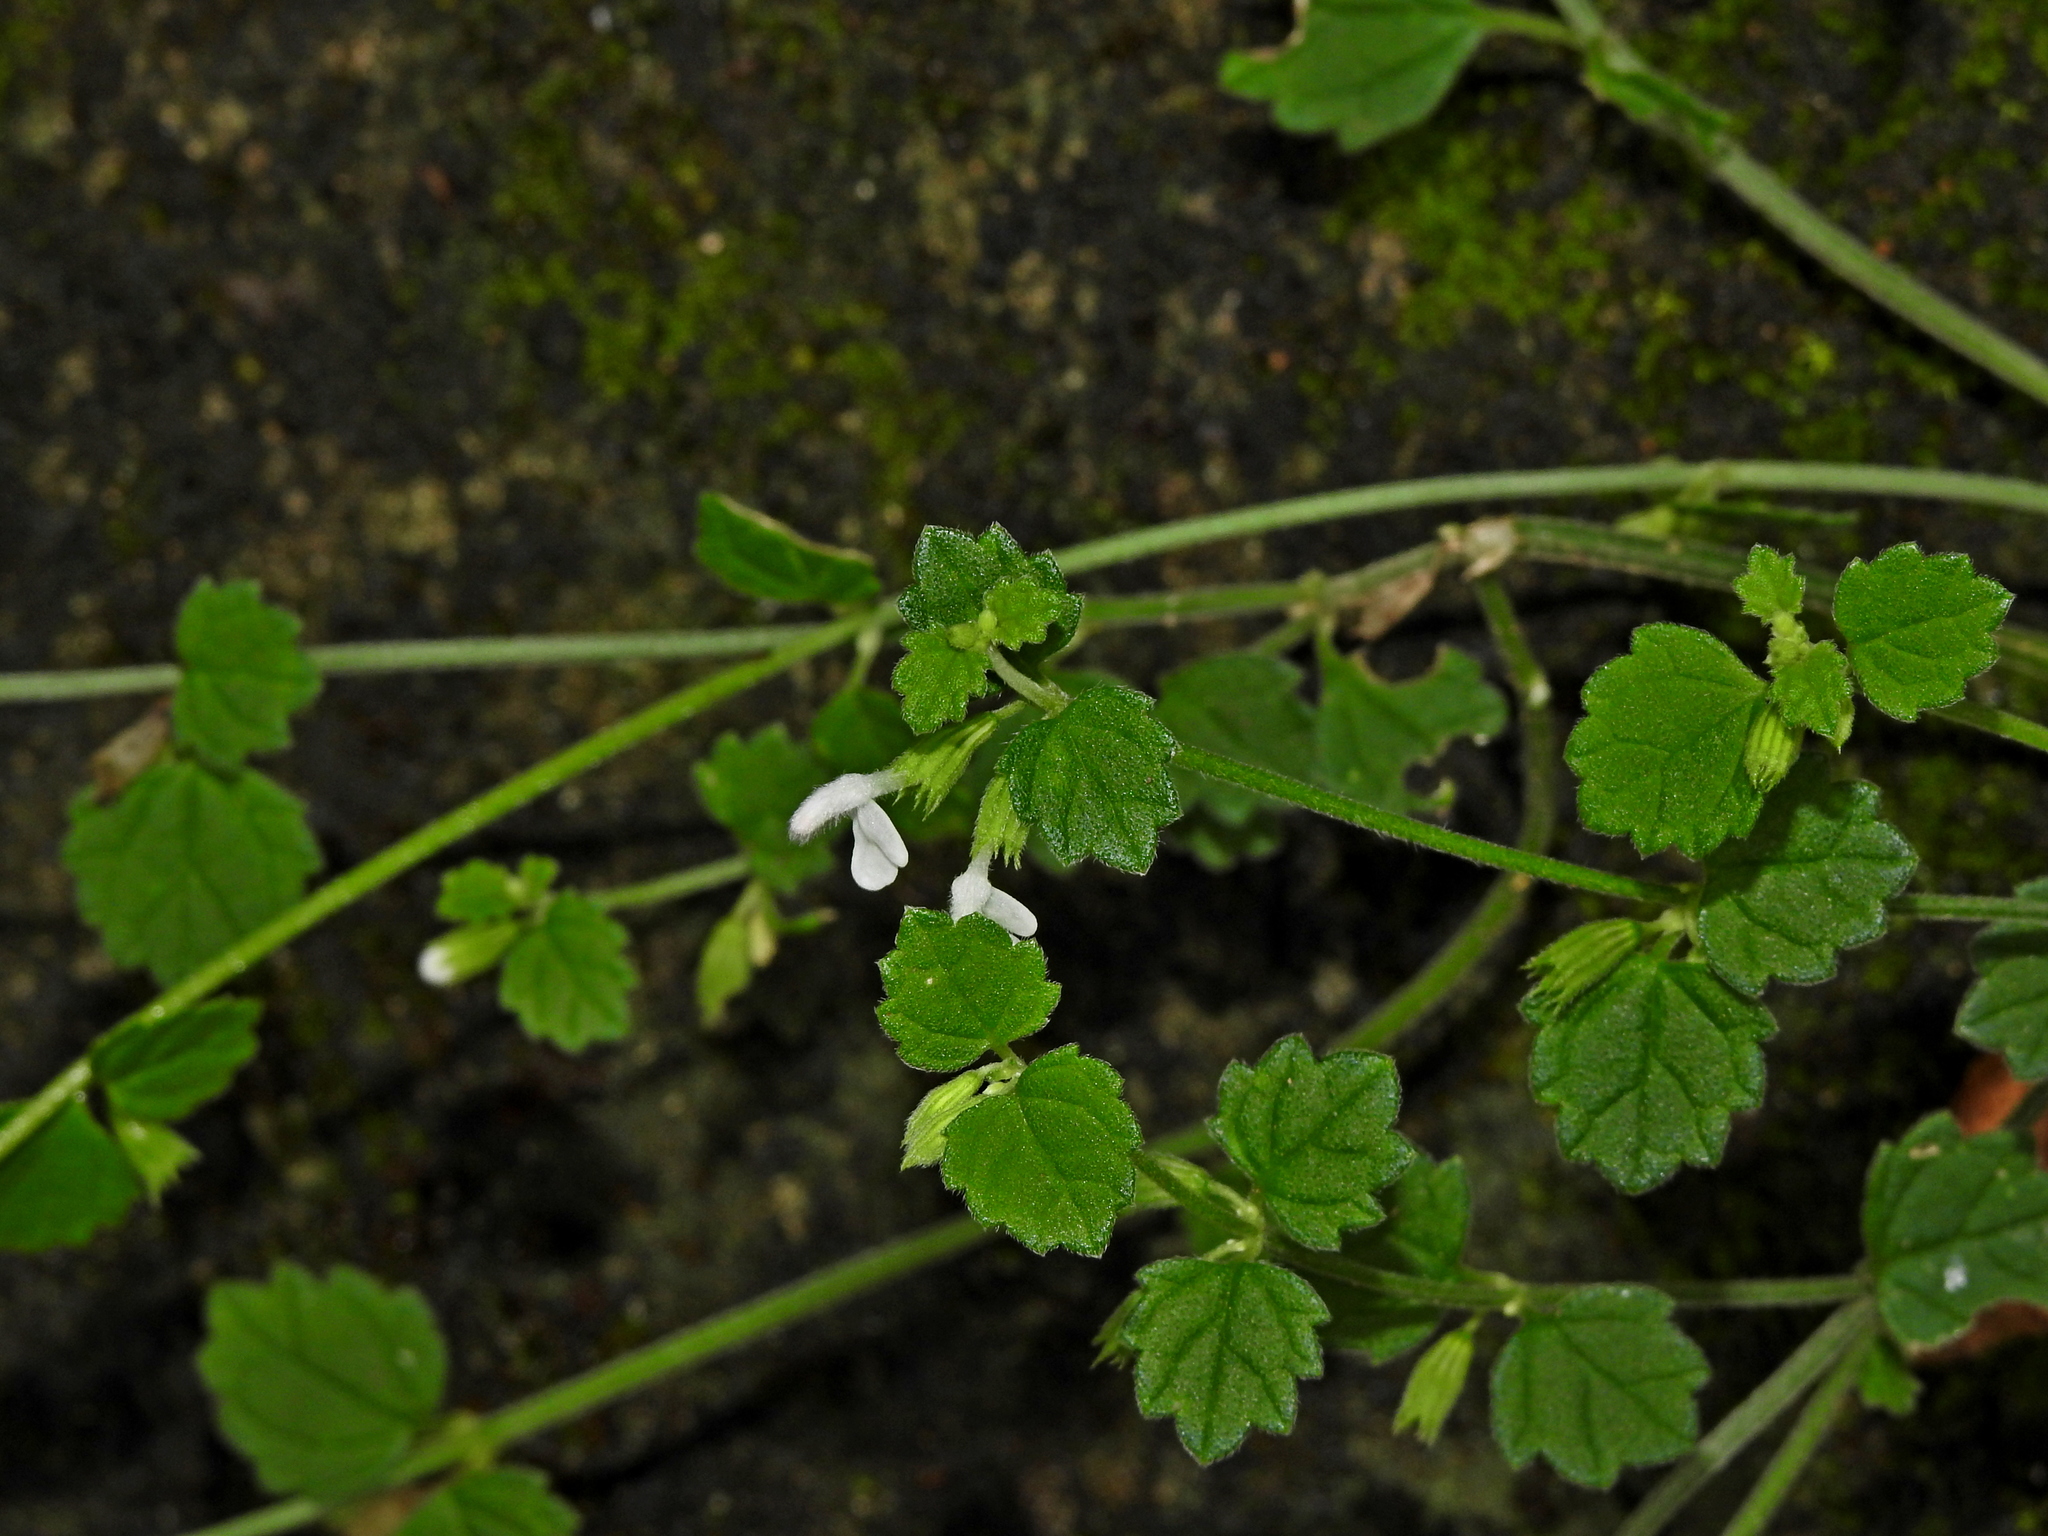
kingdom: Plantae
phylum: Tracheophyta
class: Magnoliopsida
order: Lamiales
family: Lamiaceae
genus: Leucas
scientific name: Leucas chinensis
